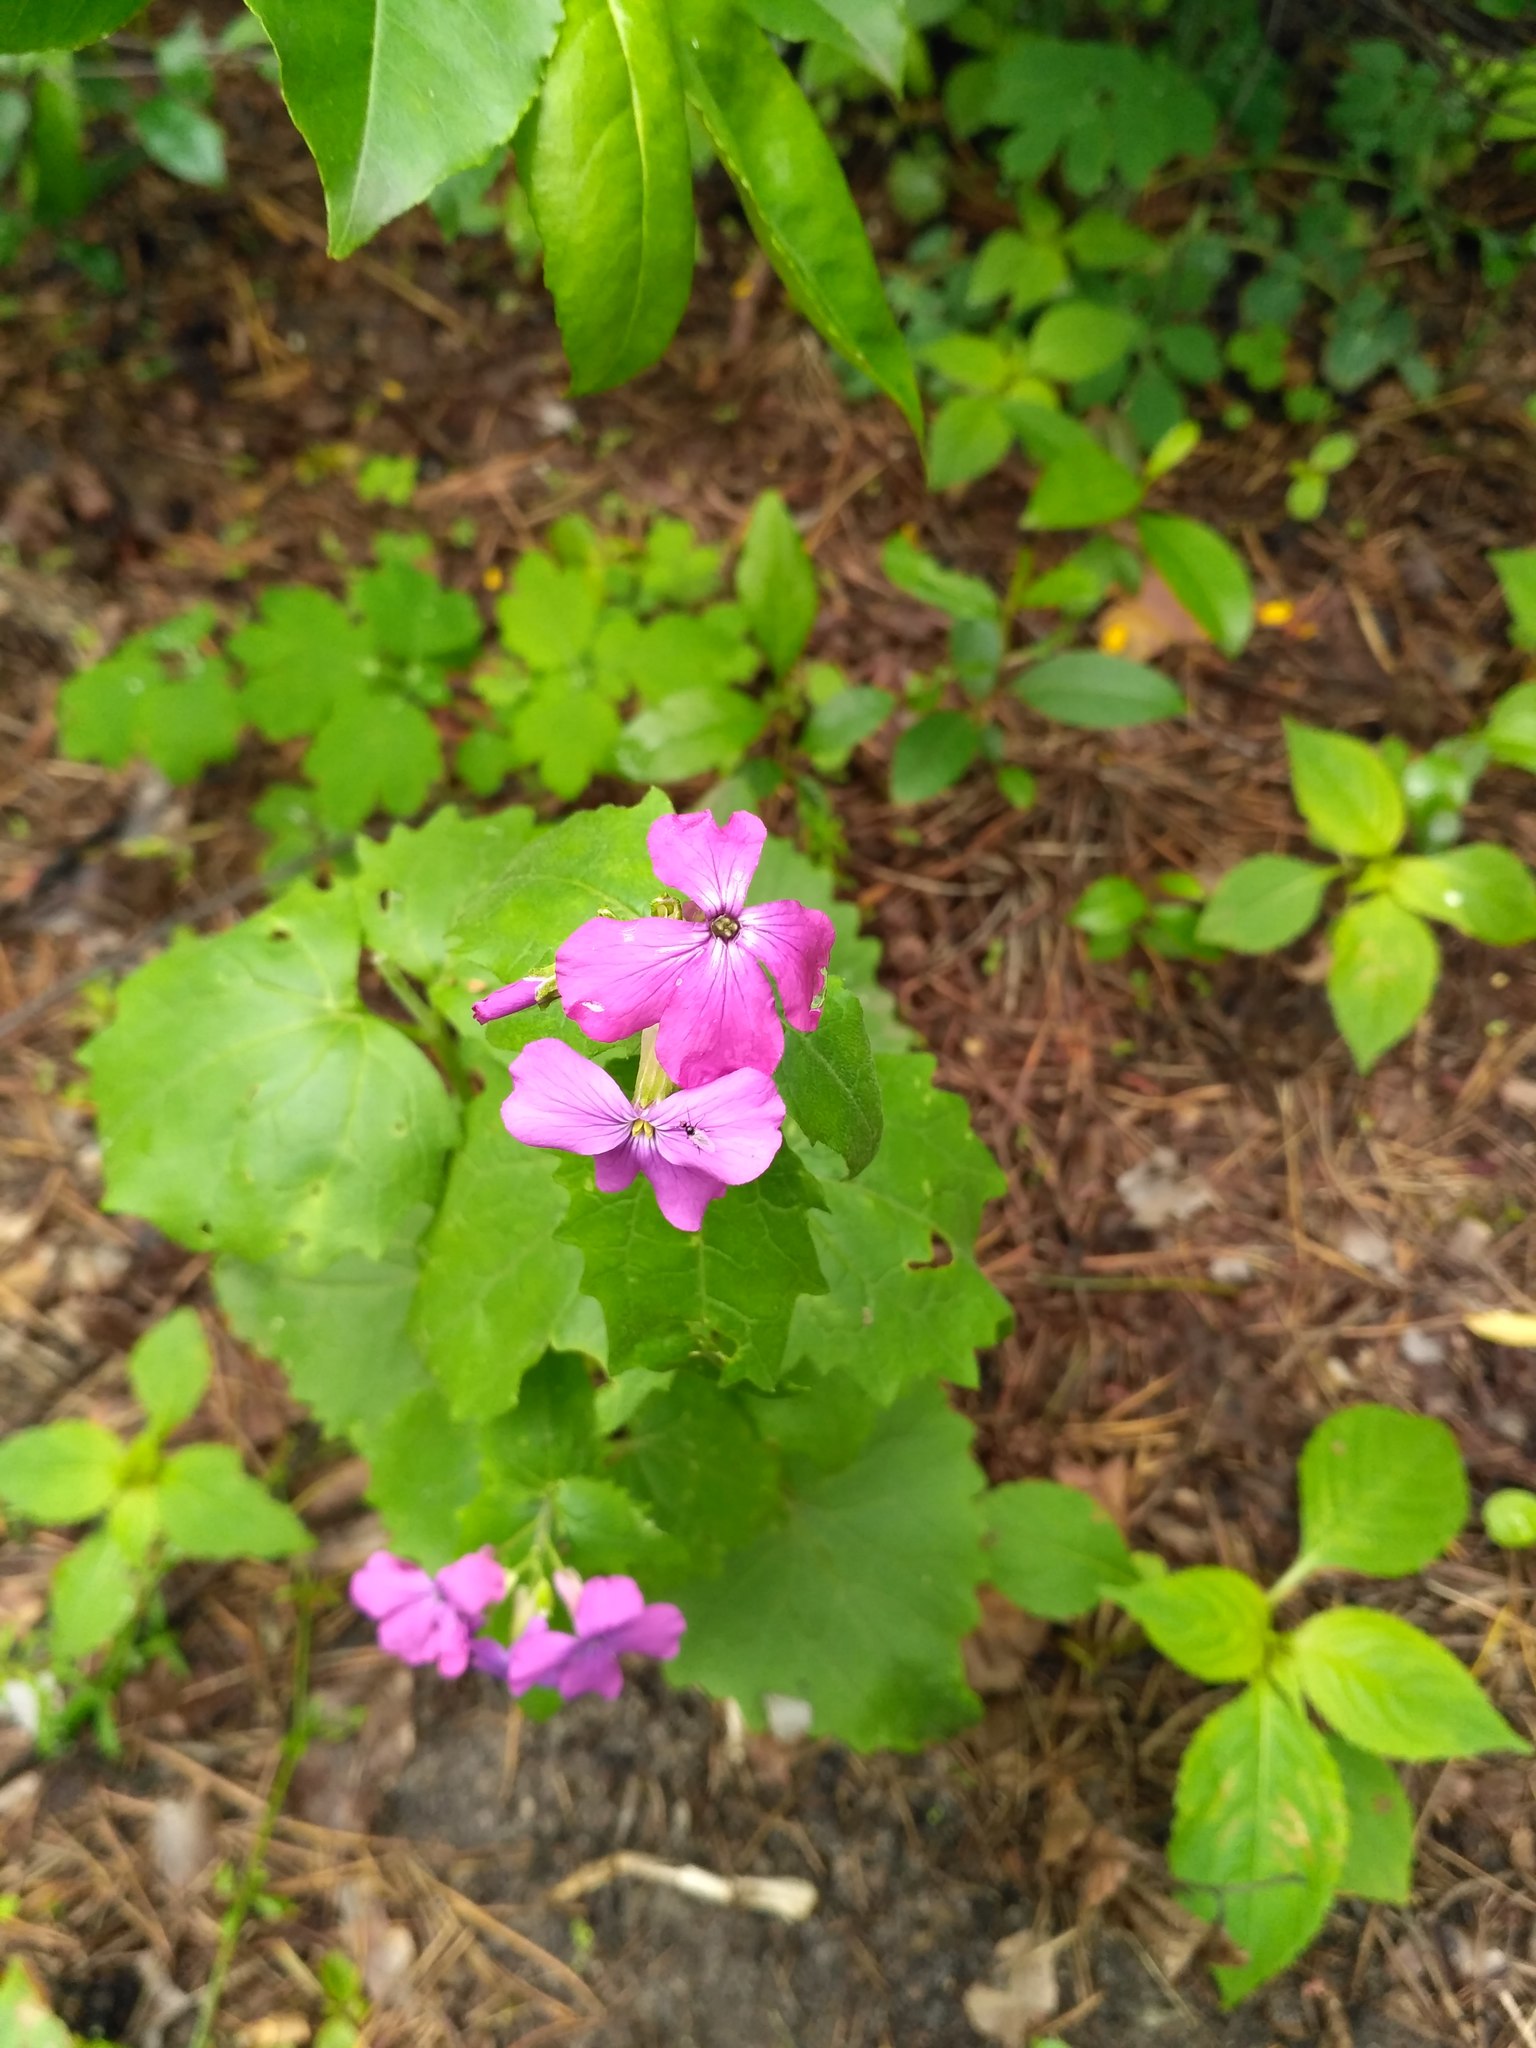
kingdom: Plantae
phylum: Tracheophyta
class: Magnoliopsida
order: Brassicales
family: Brassicaceae
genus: Lunaria
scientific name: Lunaria annua
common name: Honesty
